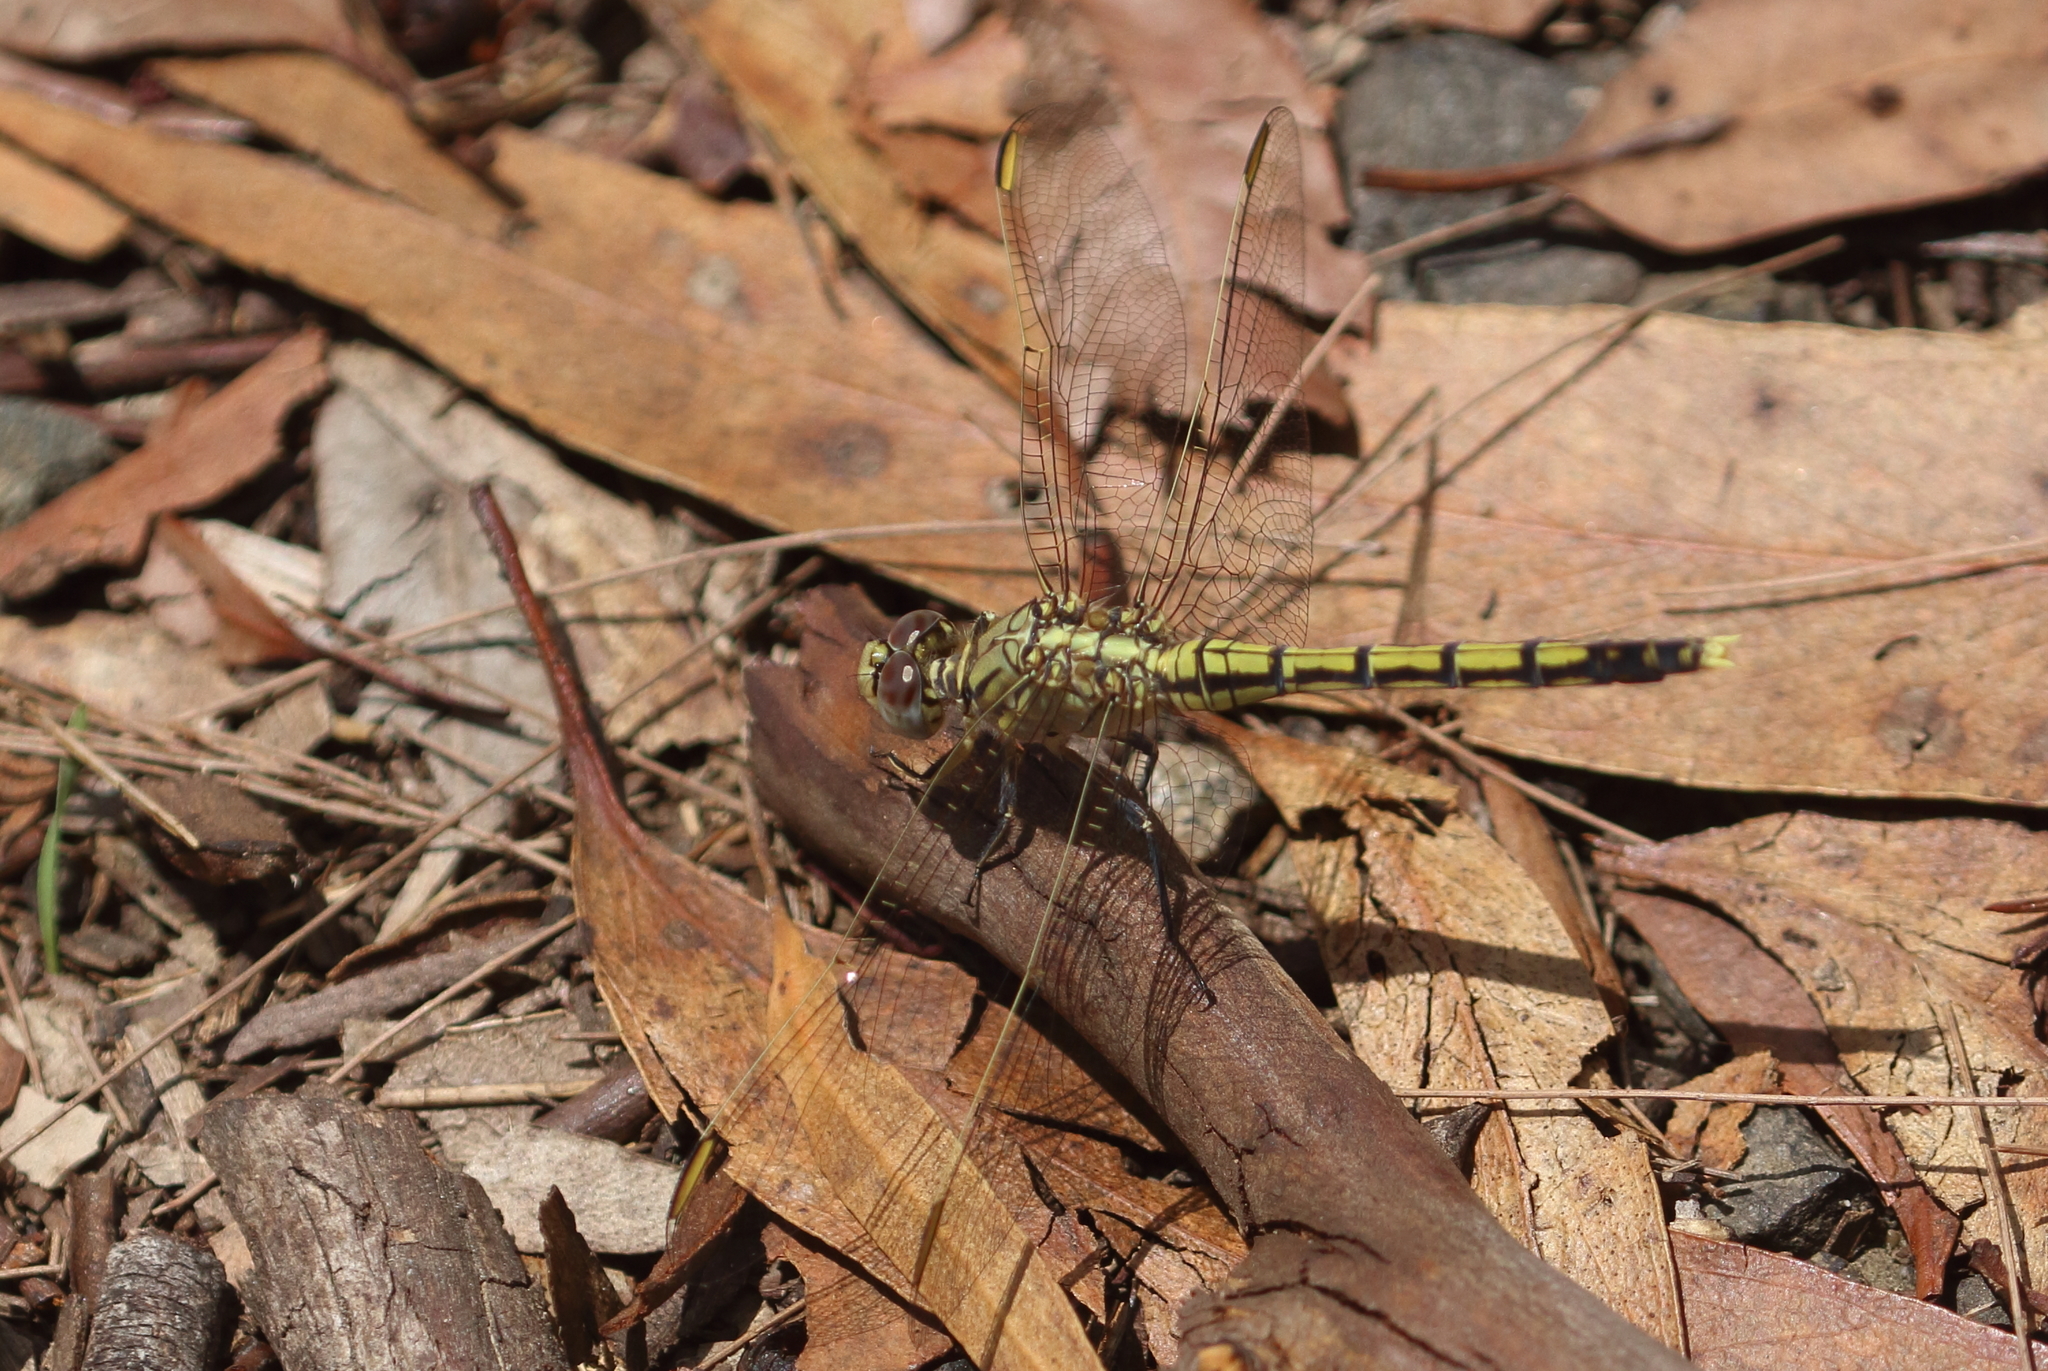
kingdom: Animalia
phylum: Arthropoda
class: Insecta
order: Odonata
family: Libellulidae
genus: Orthetrum
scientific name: Orthetrum caledonicum
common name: Blue skimmer
